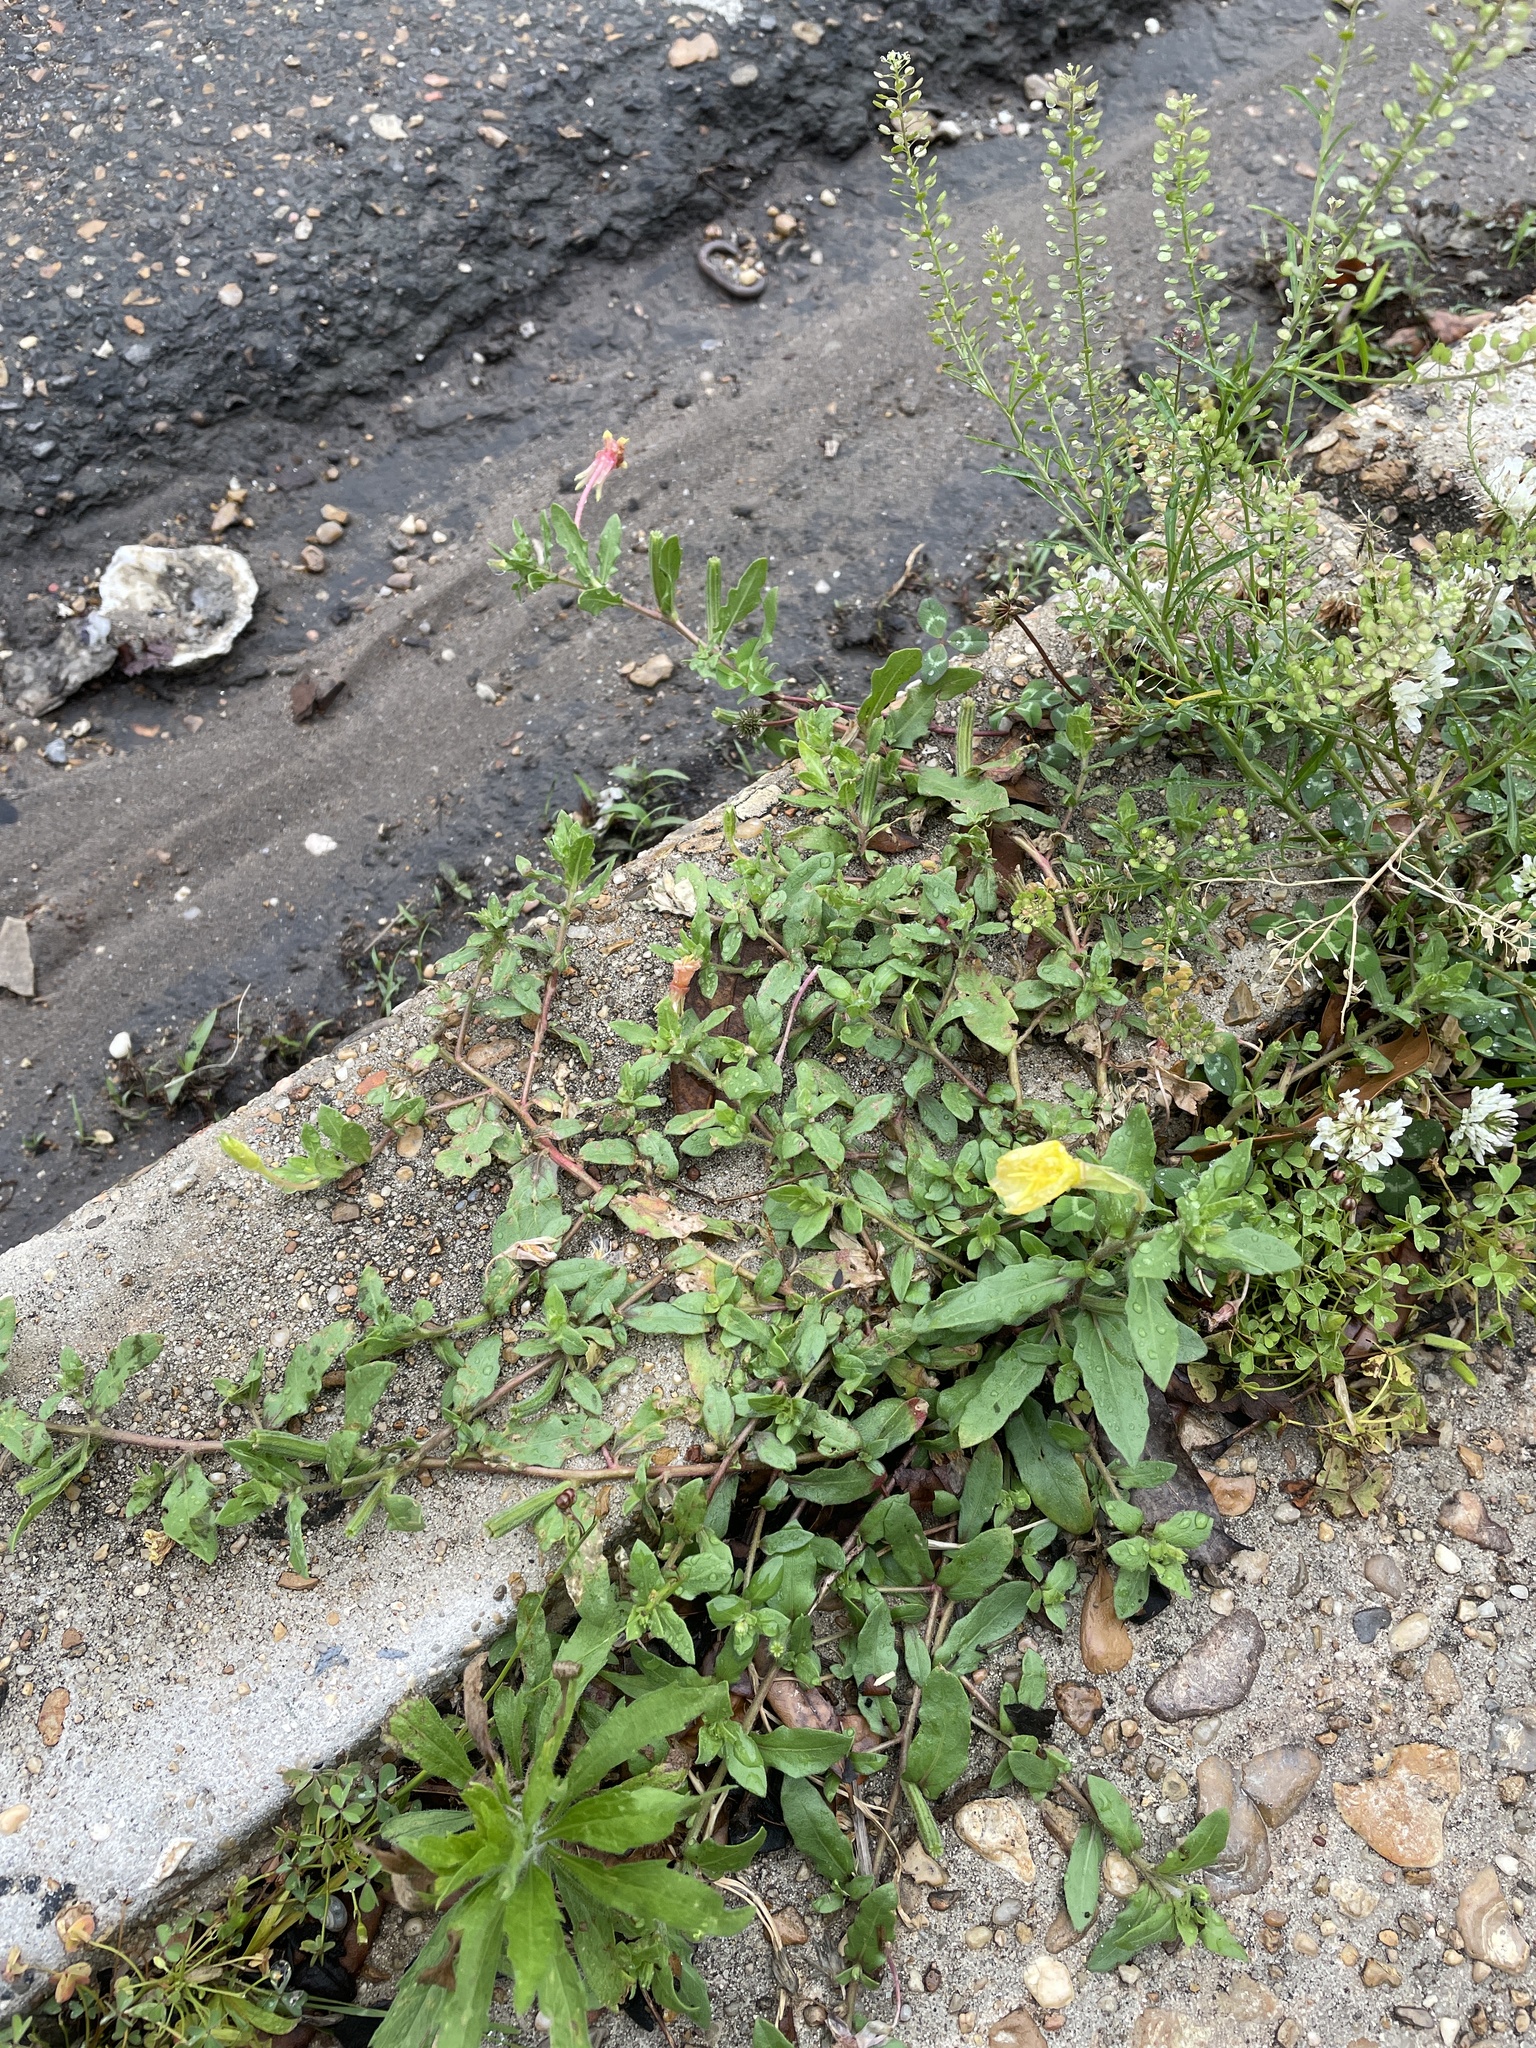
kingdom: Plantae
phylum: Tracheophyta
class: Magnoliopsida
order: Myrtales
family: Onagraceae
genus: Oenothera
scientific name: Oenothera laciniata
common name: Cut-leaved evening-primrose
